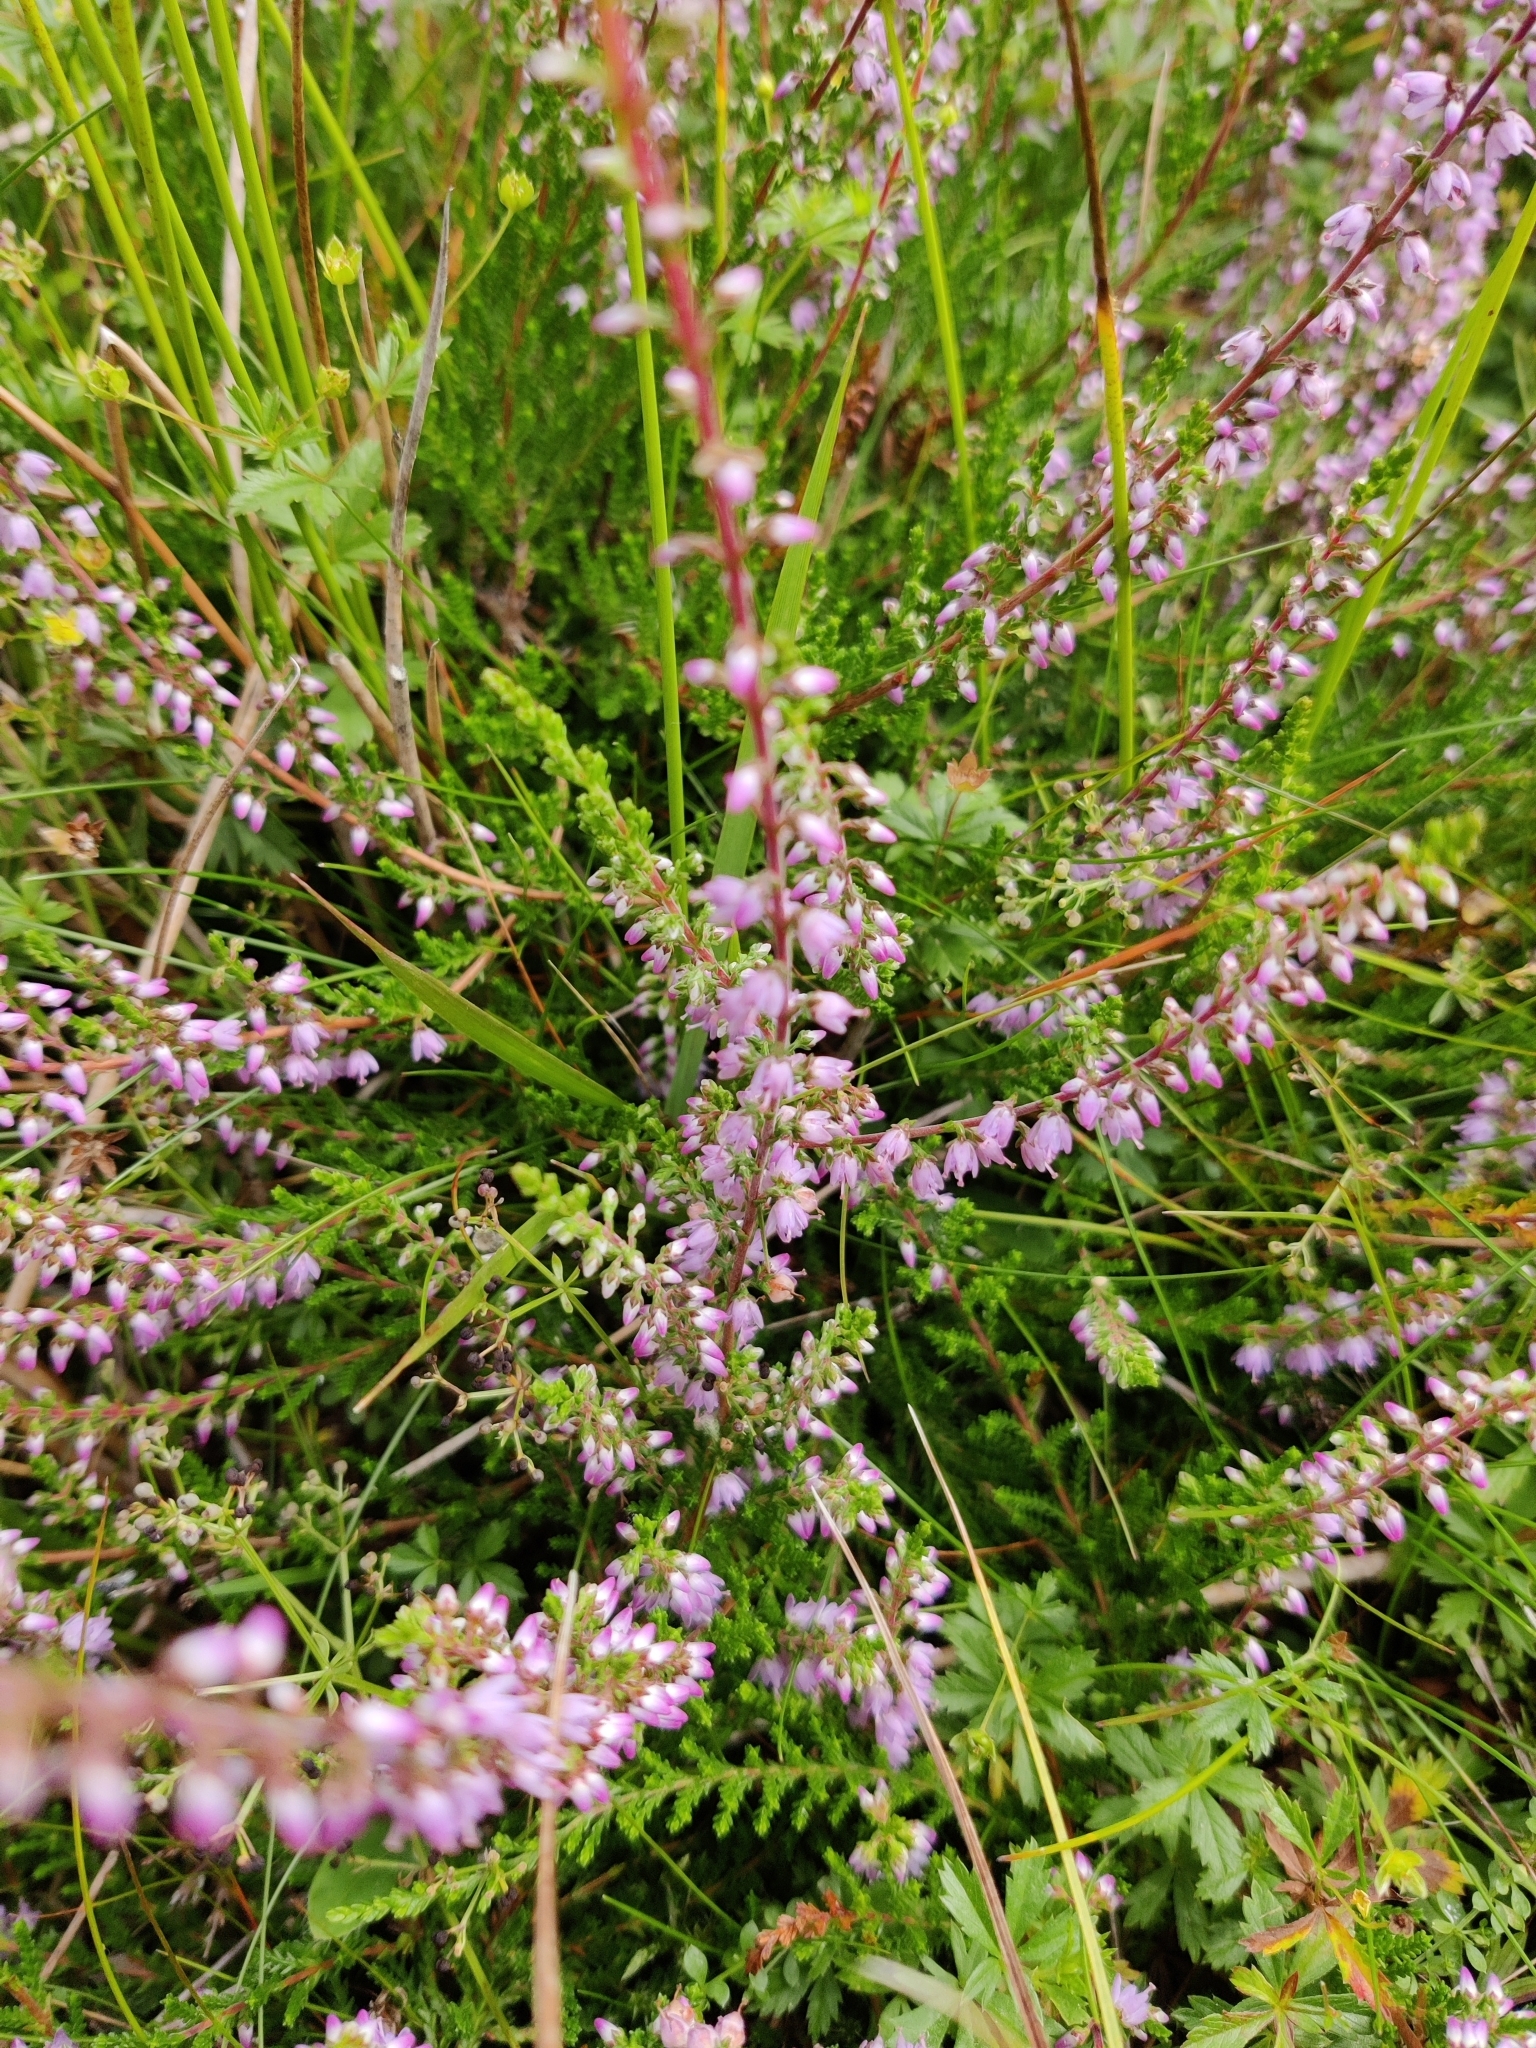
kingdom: Plantae
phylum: Tracheophyta
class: Magnoliopsida
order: Ericales
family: Ericaceae
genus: Calluna
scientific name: Calluna vulgaris
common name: Heather
